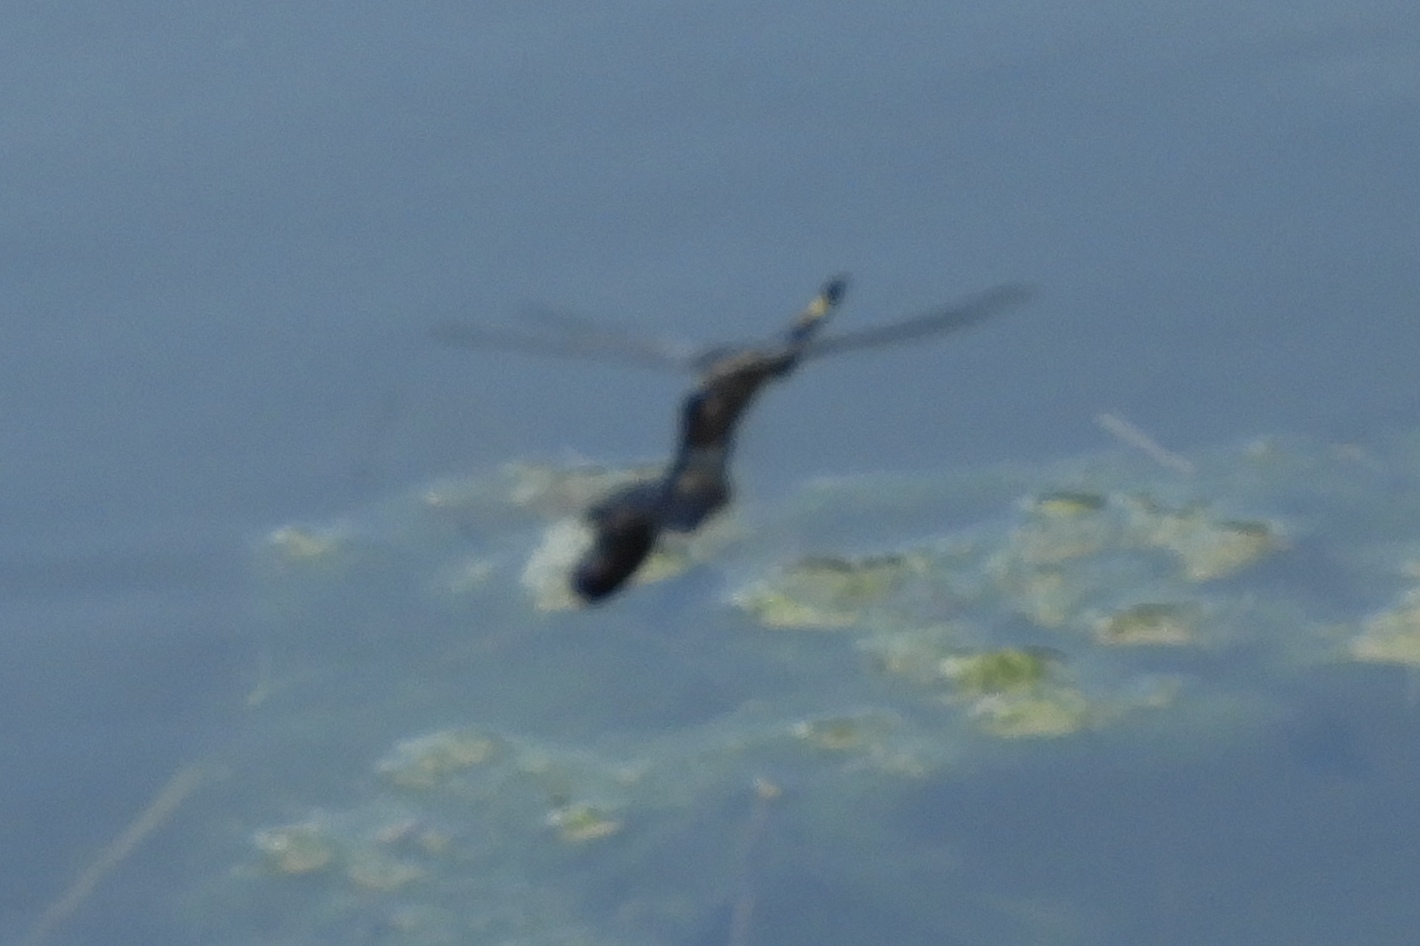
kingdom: Animalia
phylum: Arthropoda
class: Insecta
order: Odonata
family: Libellulidae
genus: Tramea
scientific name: Tramea lacerata
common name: Black saddlebags
